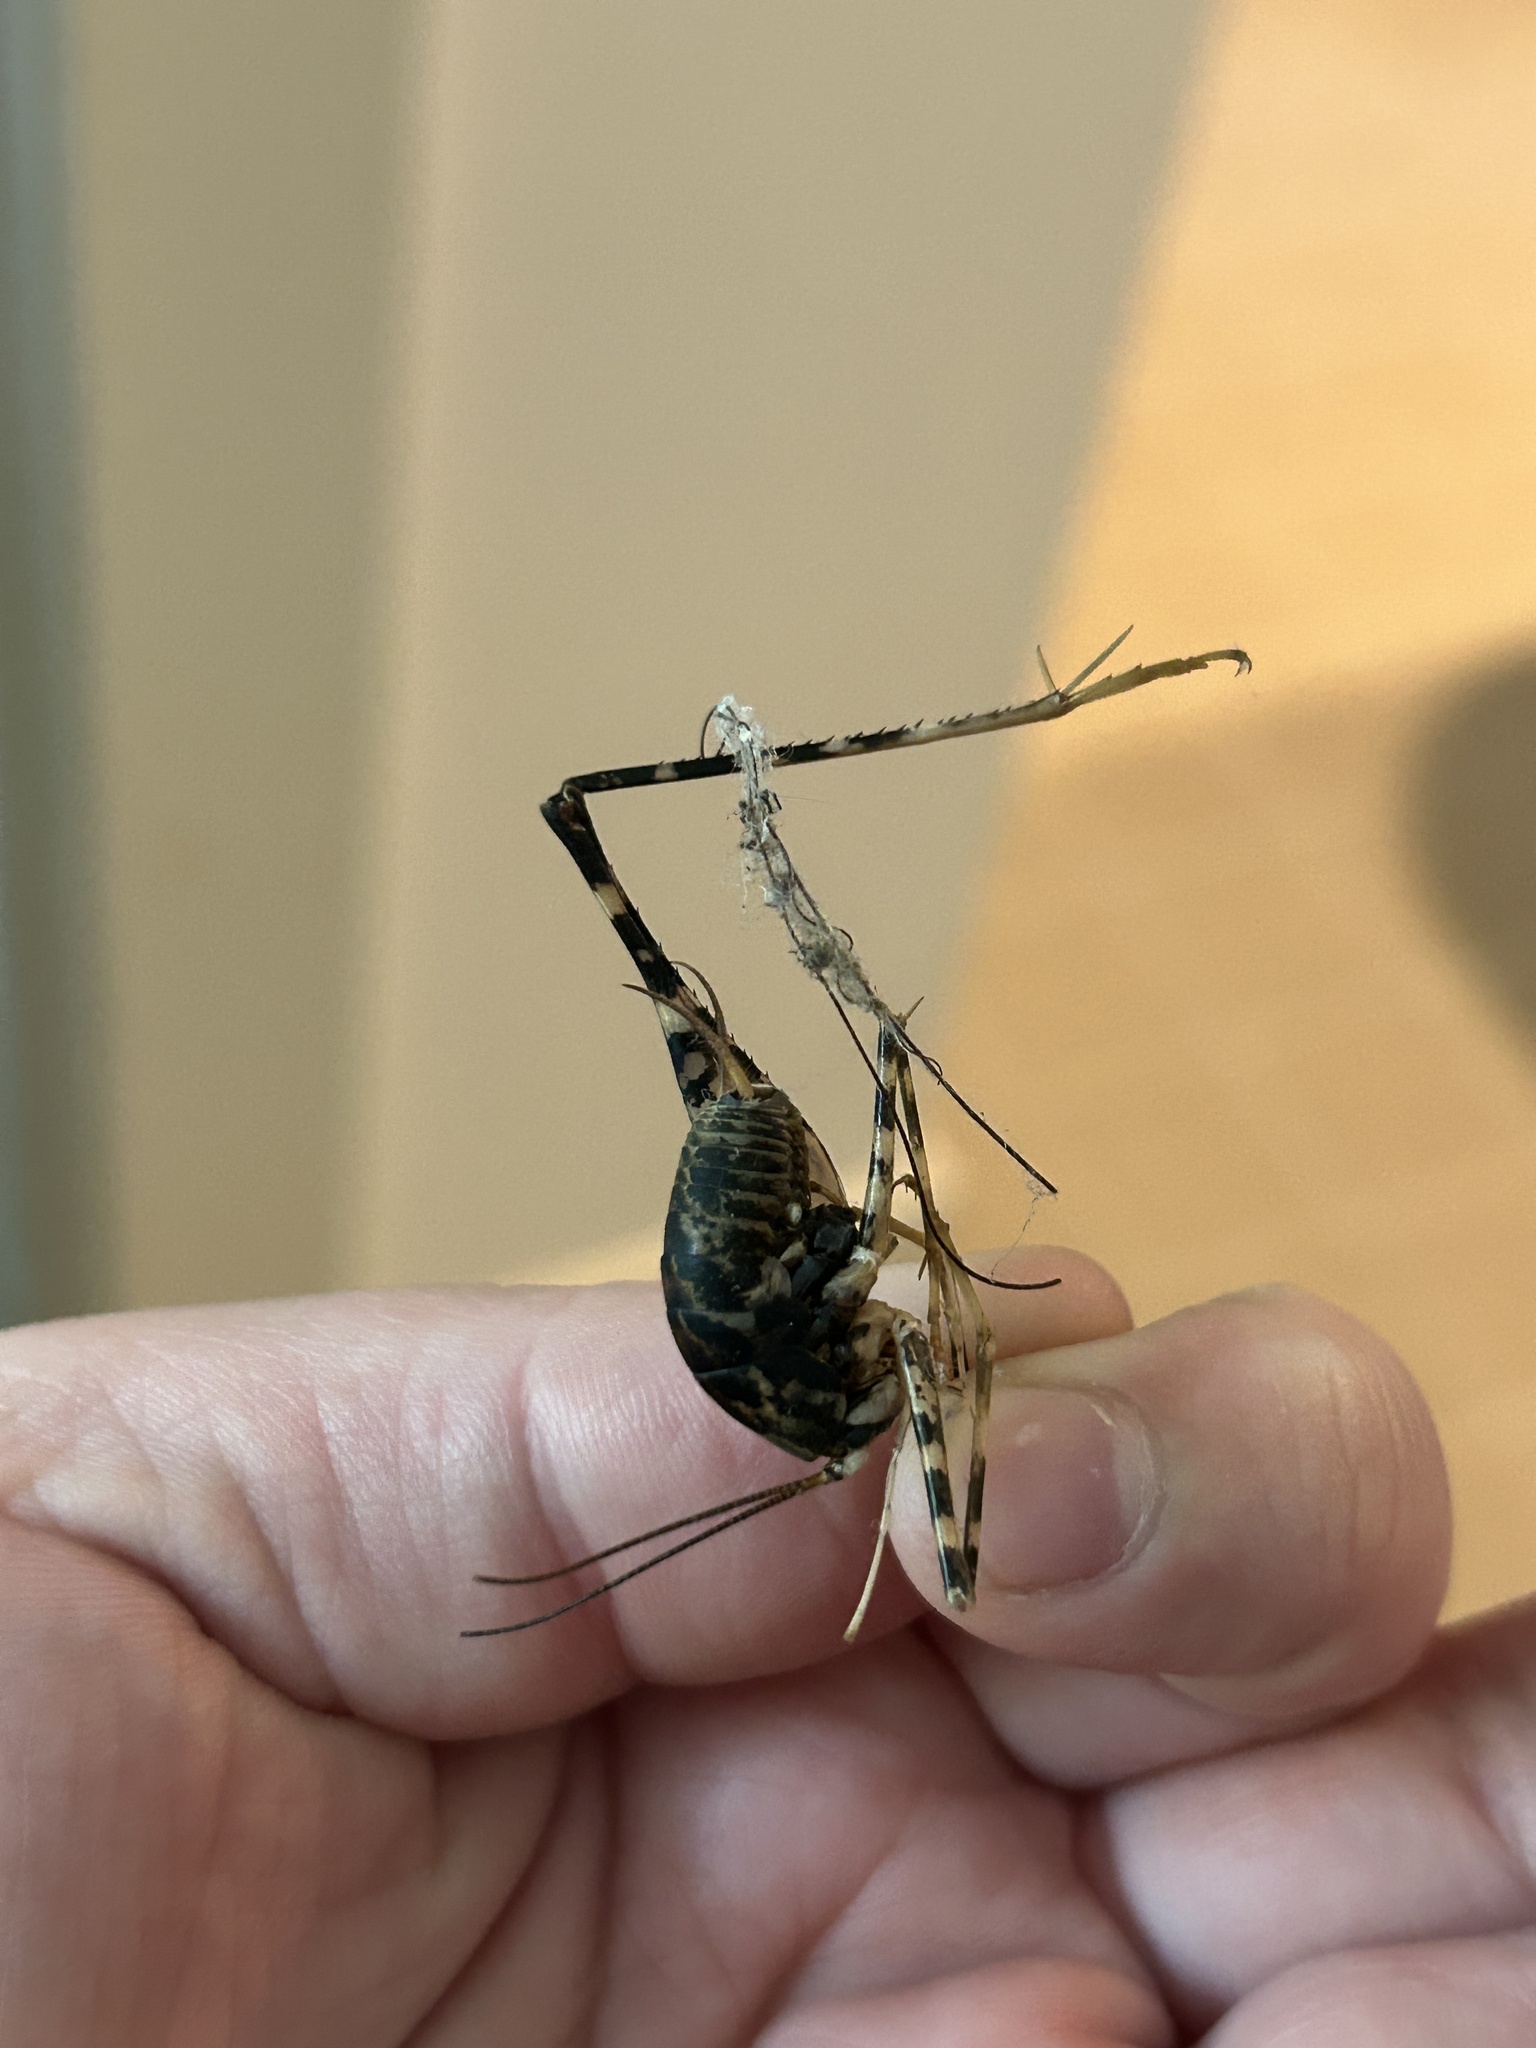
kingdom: Animalia
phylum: Arthropoda
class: Insecta
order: Orthoptera
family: Rhaphidophoridae
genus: Diestrammena
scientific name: Diestrammena japanica
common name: Japanese camel cricket
